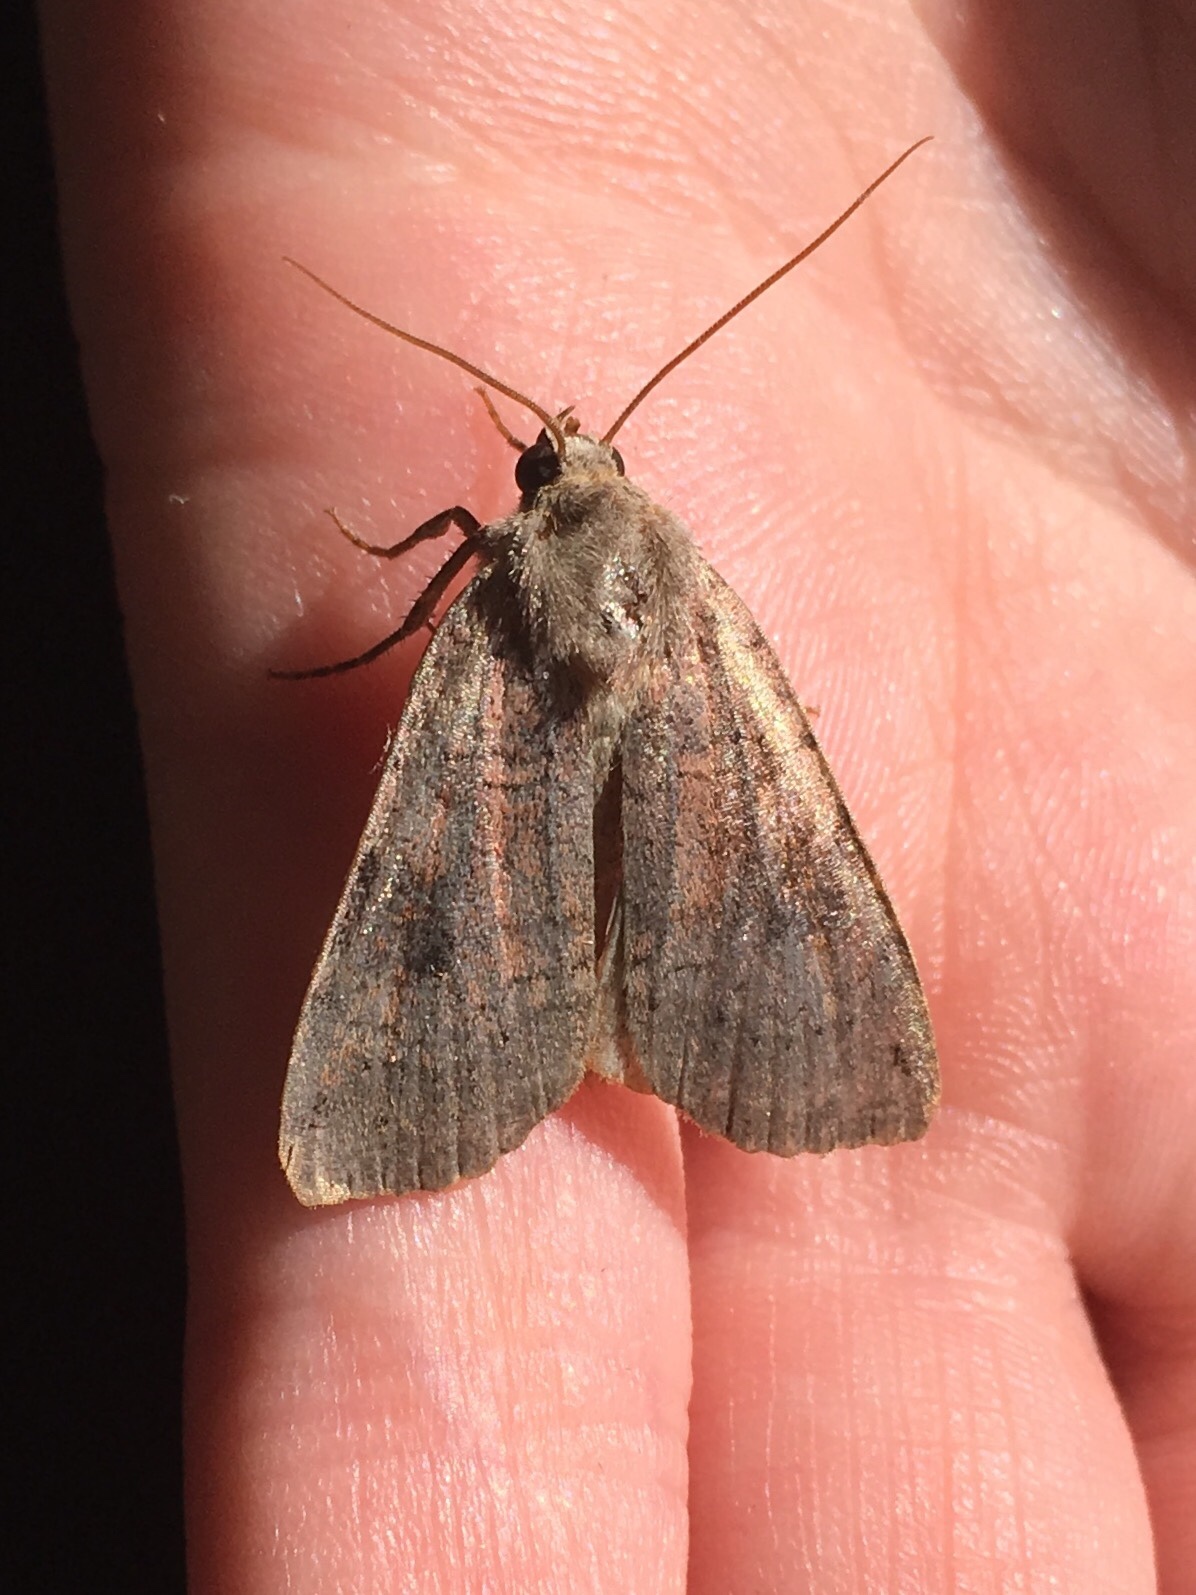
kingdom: Animalia
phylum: Arthropoda
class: Insecta
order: Lepidoptera
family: Noctuidae
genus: Xestia
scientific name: Xestia smithii
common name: Smith's dart
